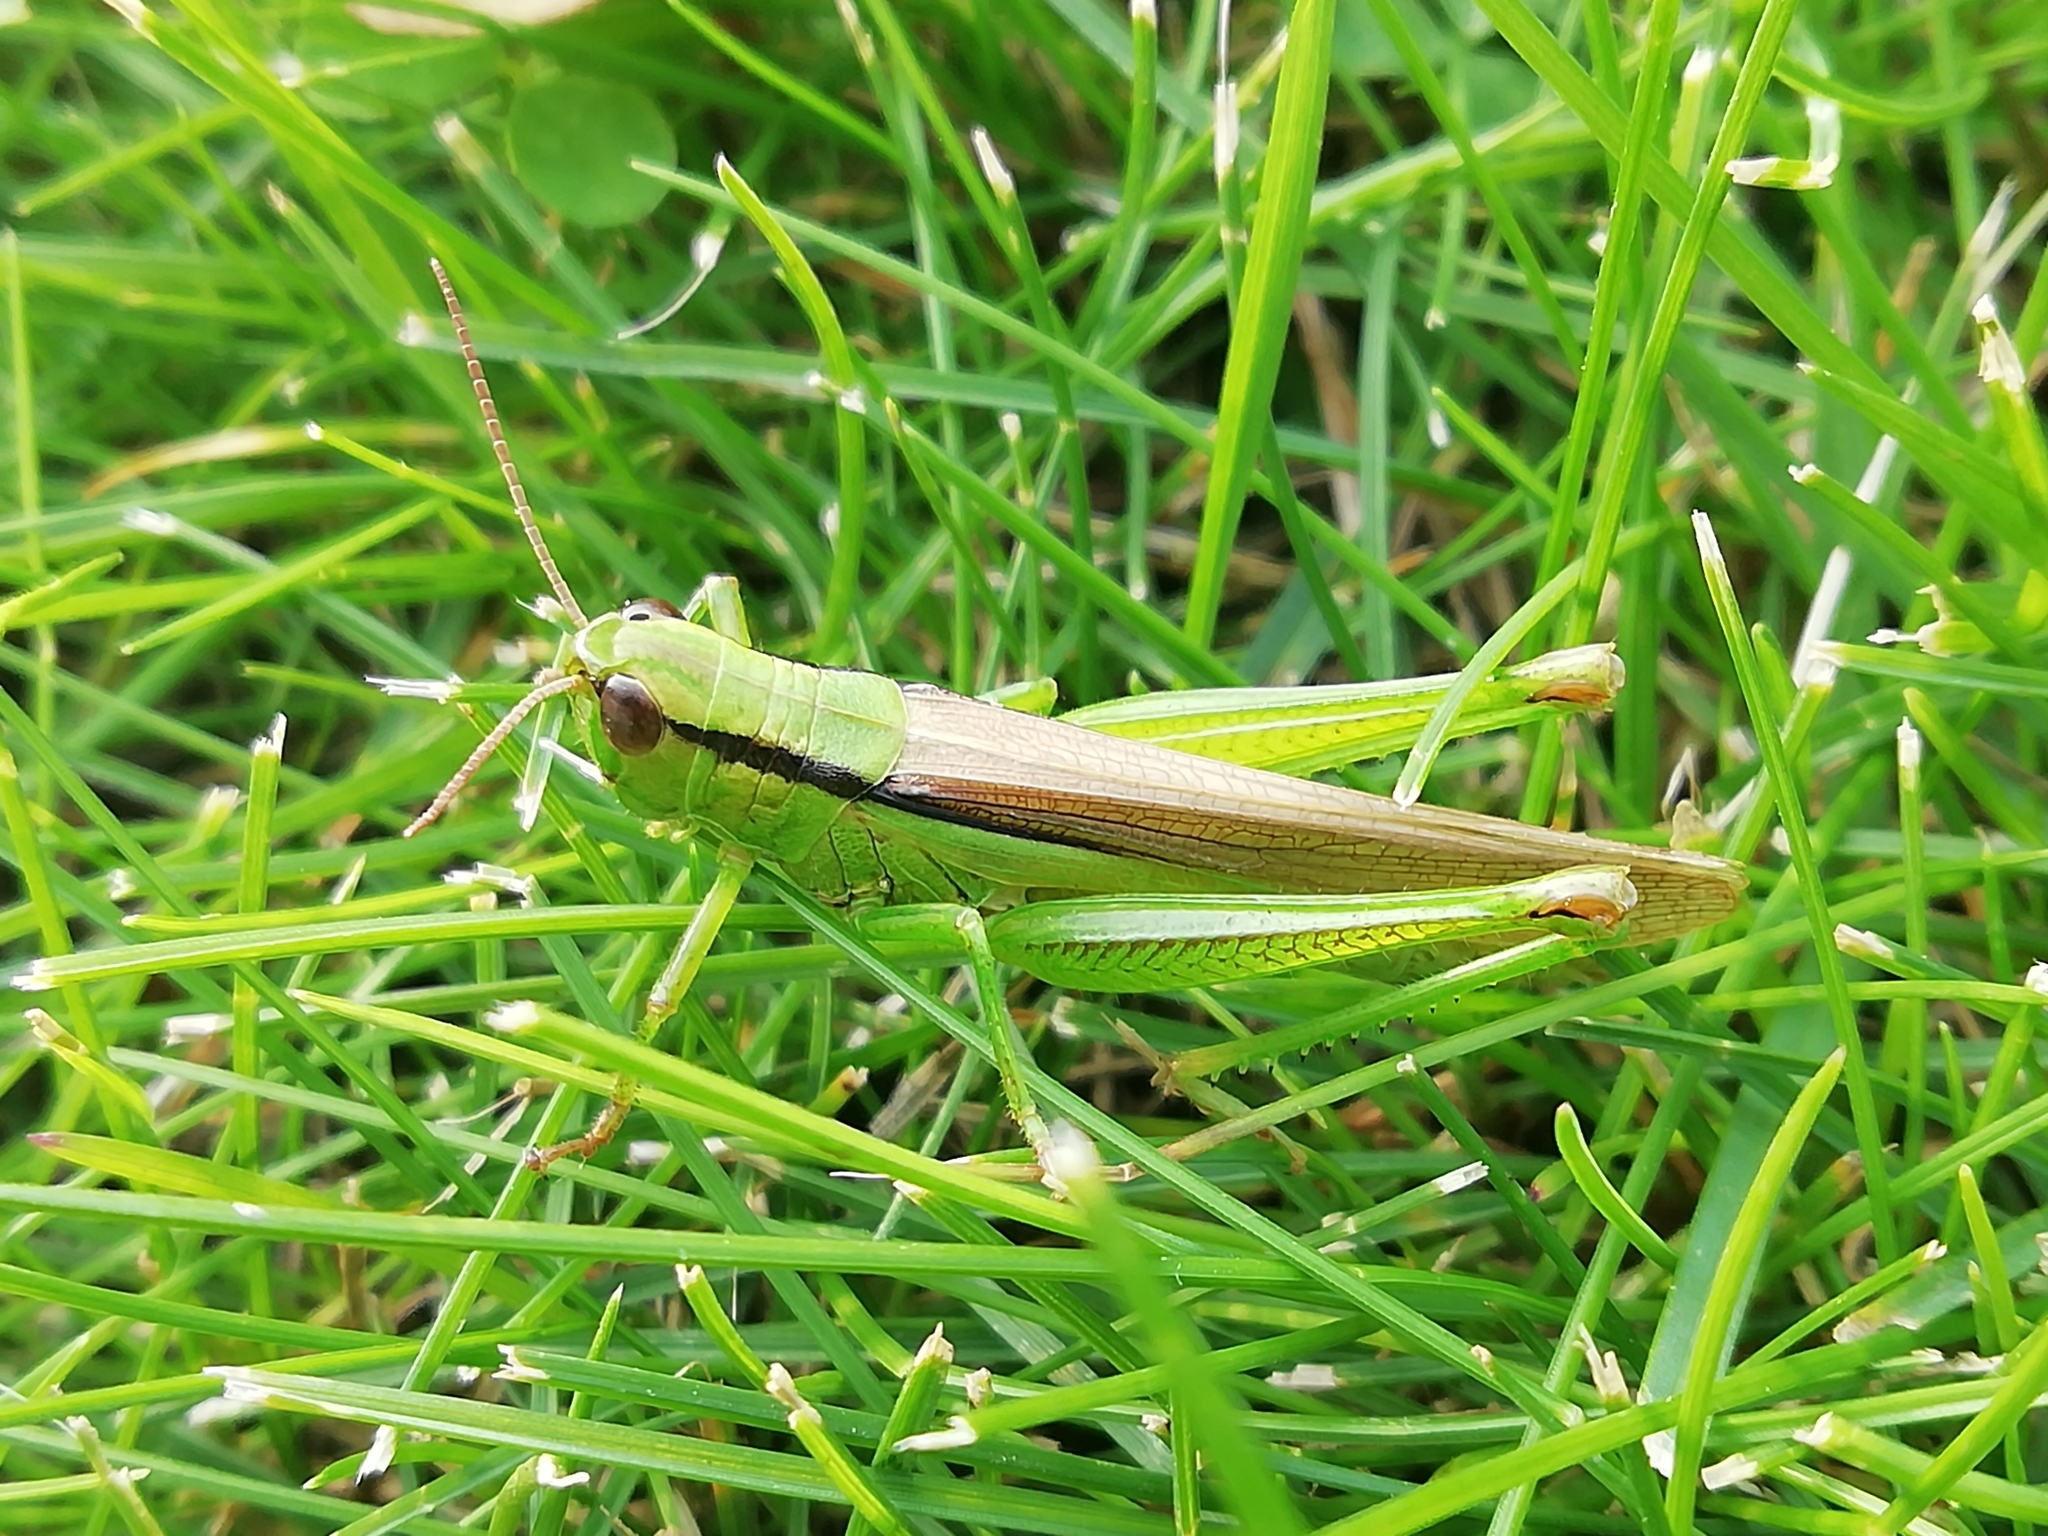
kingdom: Animalia
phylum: Arthropoda
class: Insecta
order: Orthoptera
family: Acrididae
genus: Mecostethus
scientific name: Mecostethus parapleurus
